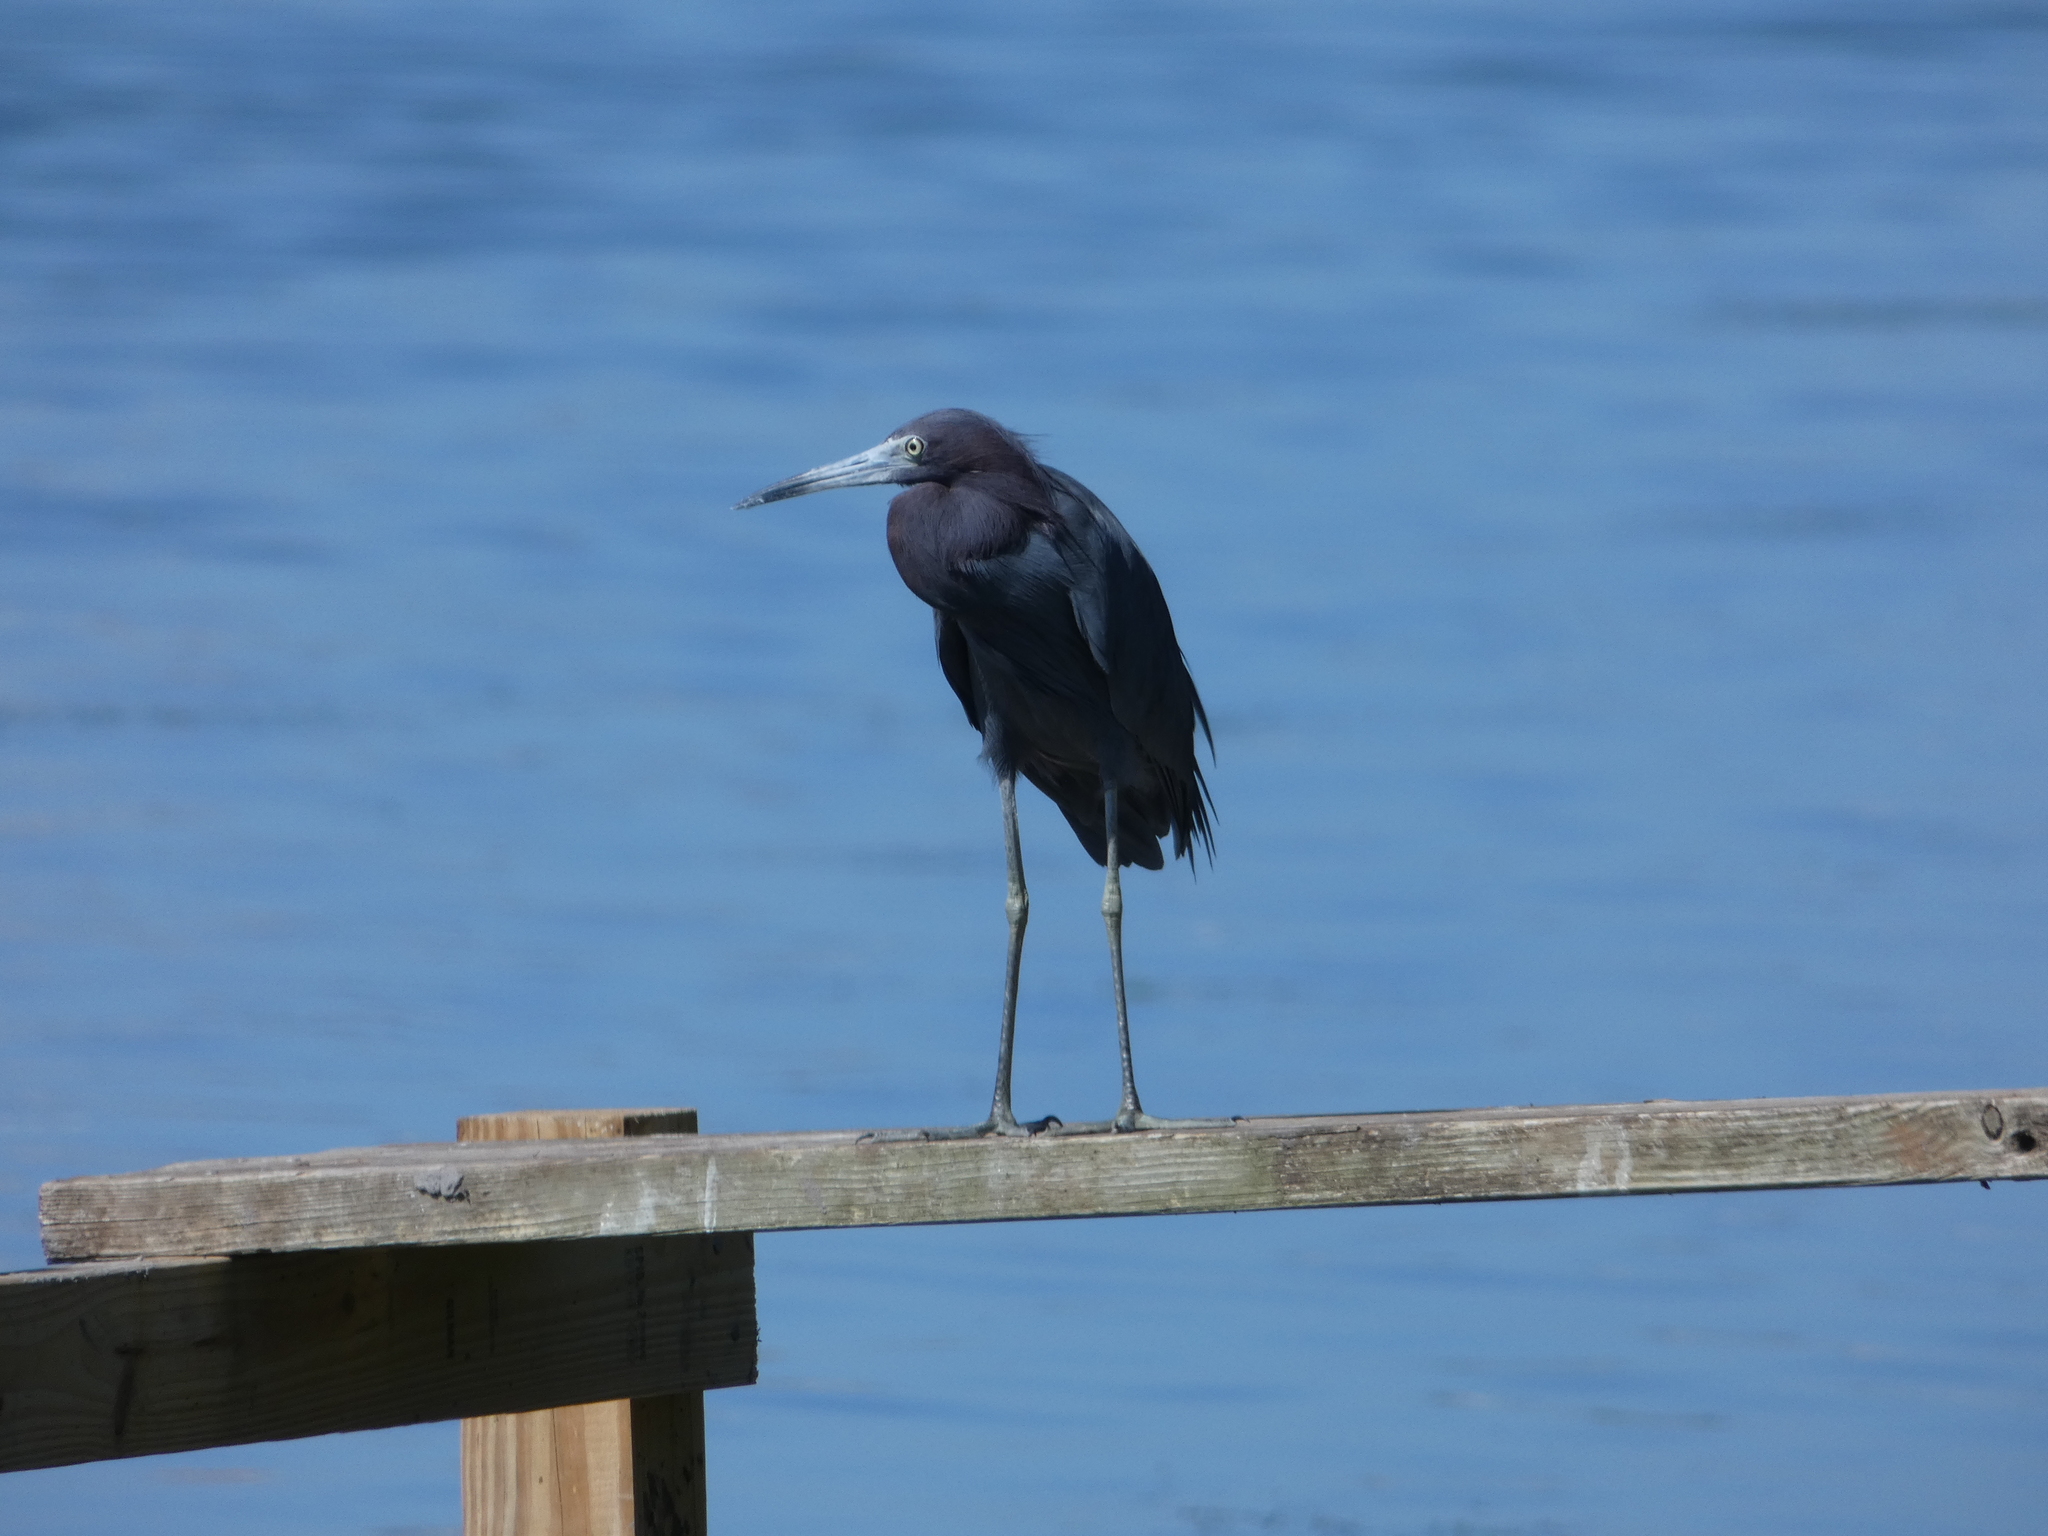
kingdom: Animalia
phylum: Chordata
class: Aves
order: Pelecaniformes
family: Ardeidae
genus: Egretta
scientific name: Egretta caerulea
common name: Little blue heron
